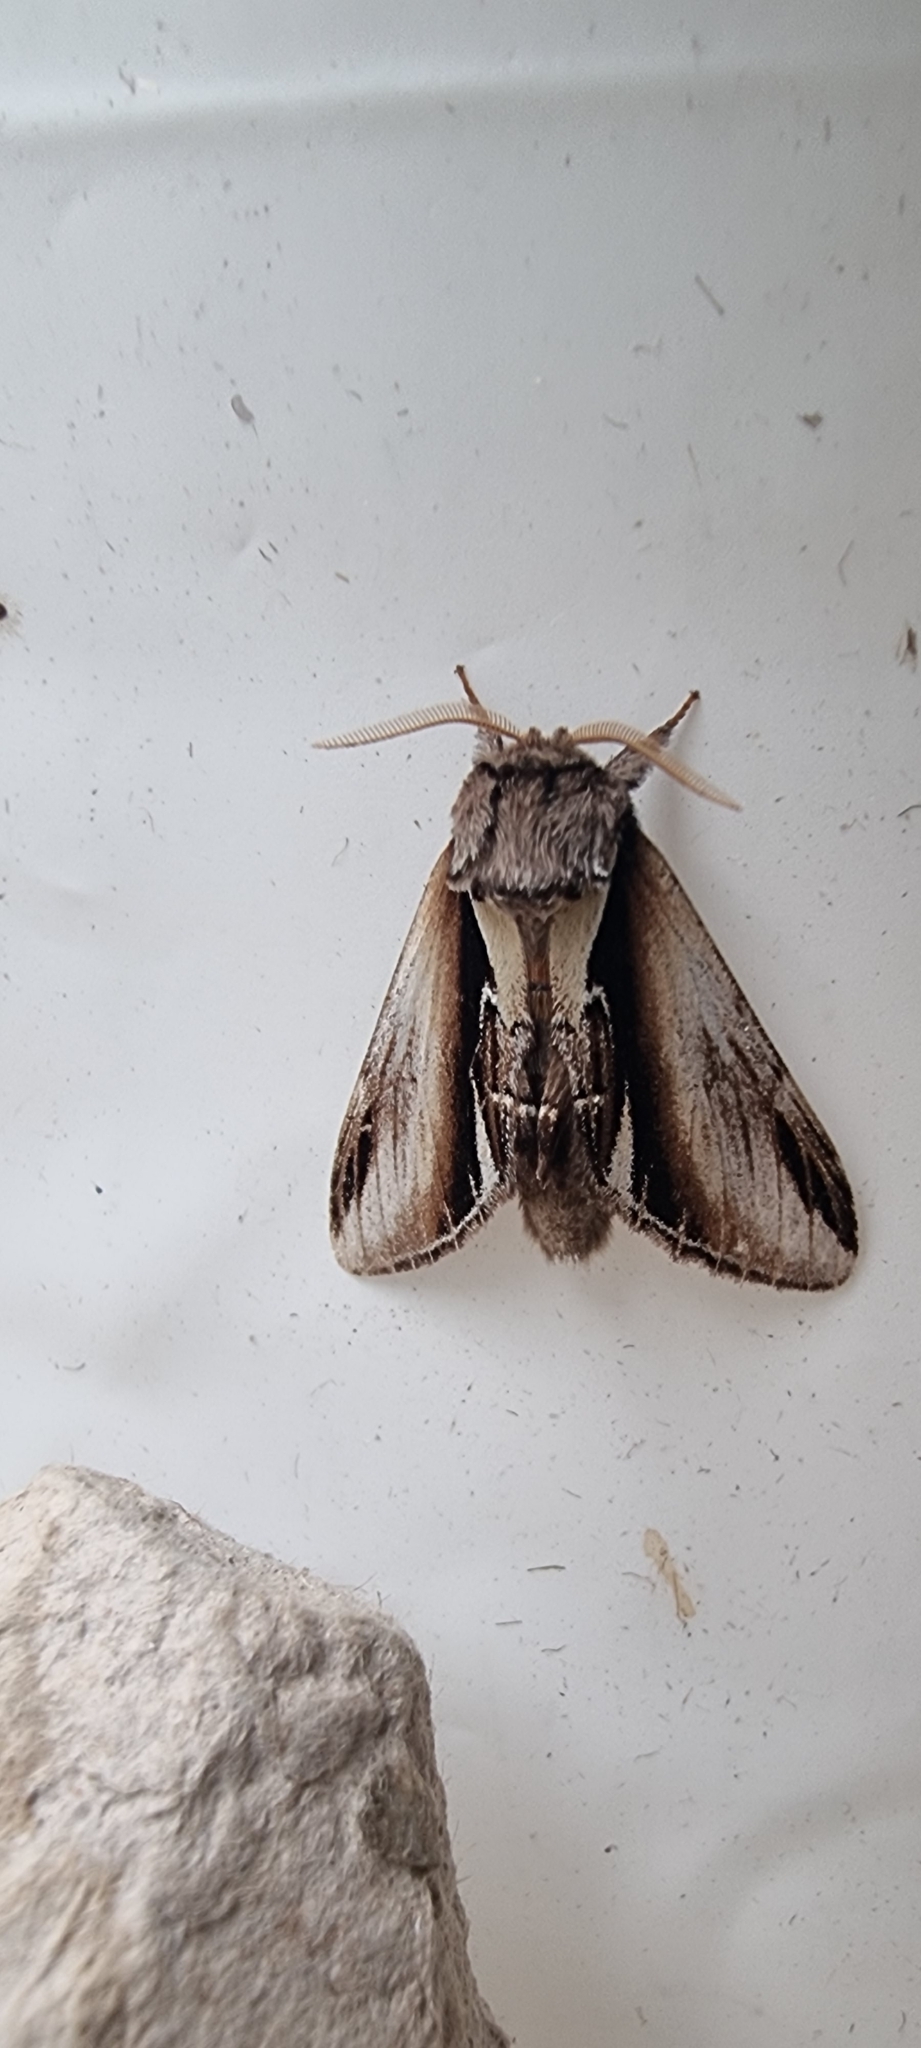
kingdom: Animalia
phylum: Arthropoda
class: Insecta
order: Lepidoptera
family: Notodontidae
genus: Pheosia
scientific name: Pheosia gnoma
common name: Lesser swallow prominent
